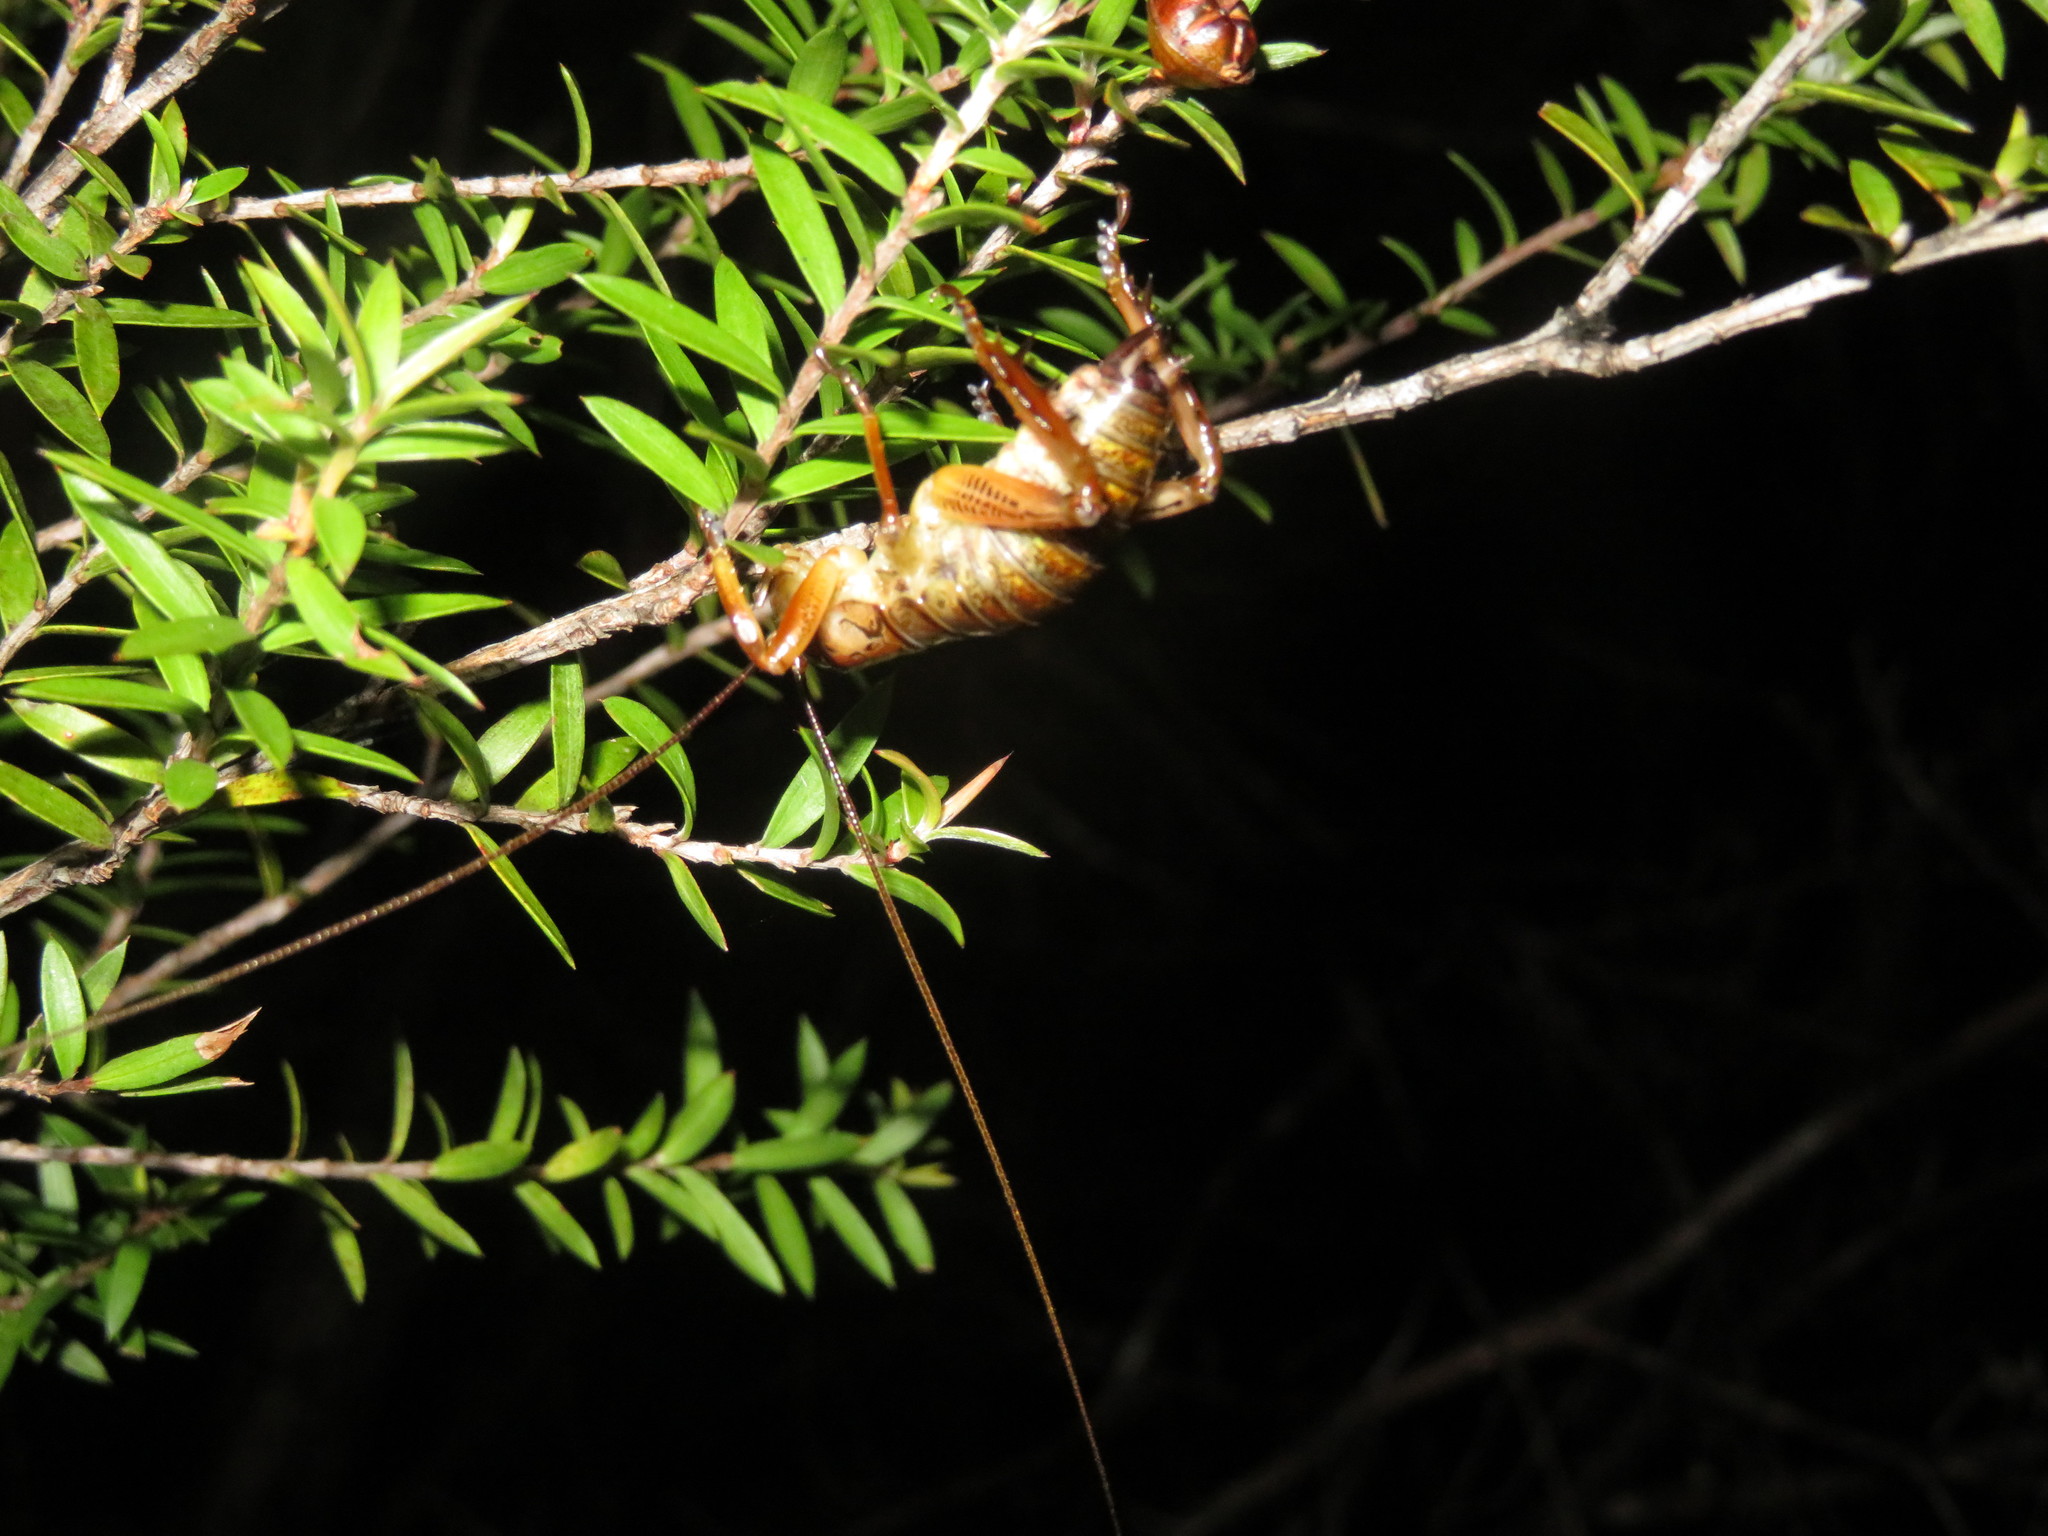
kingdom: Animalia
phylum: Arthropoda
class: Insecta
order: Orthoptera
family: Anostostomatidae
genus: Hemideina
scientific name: Hemideina thoracica
